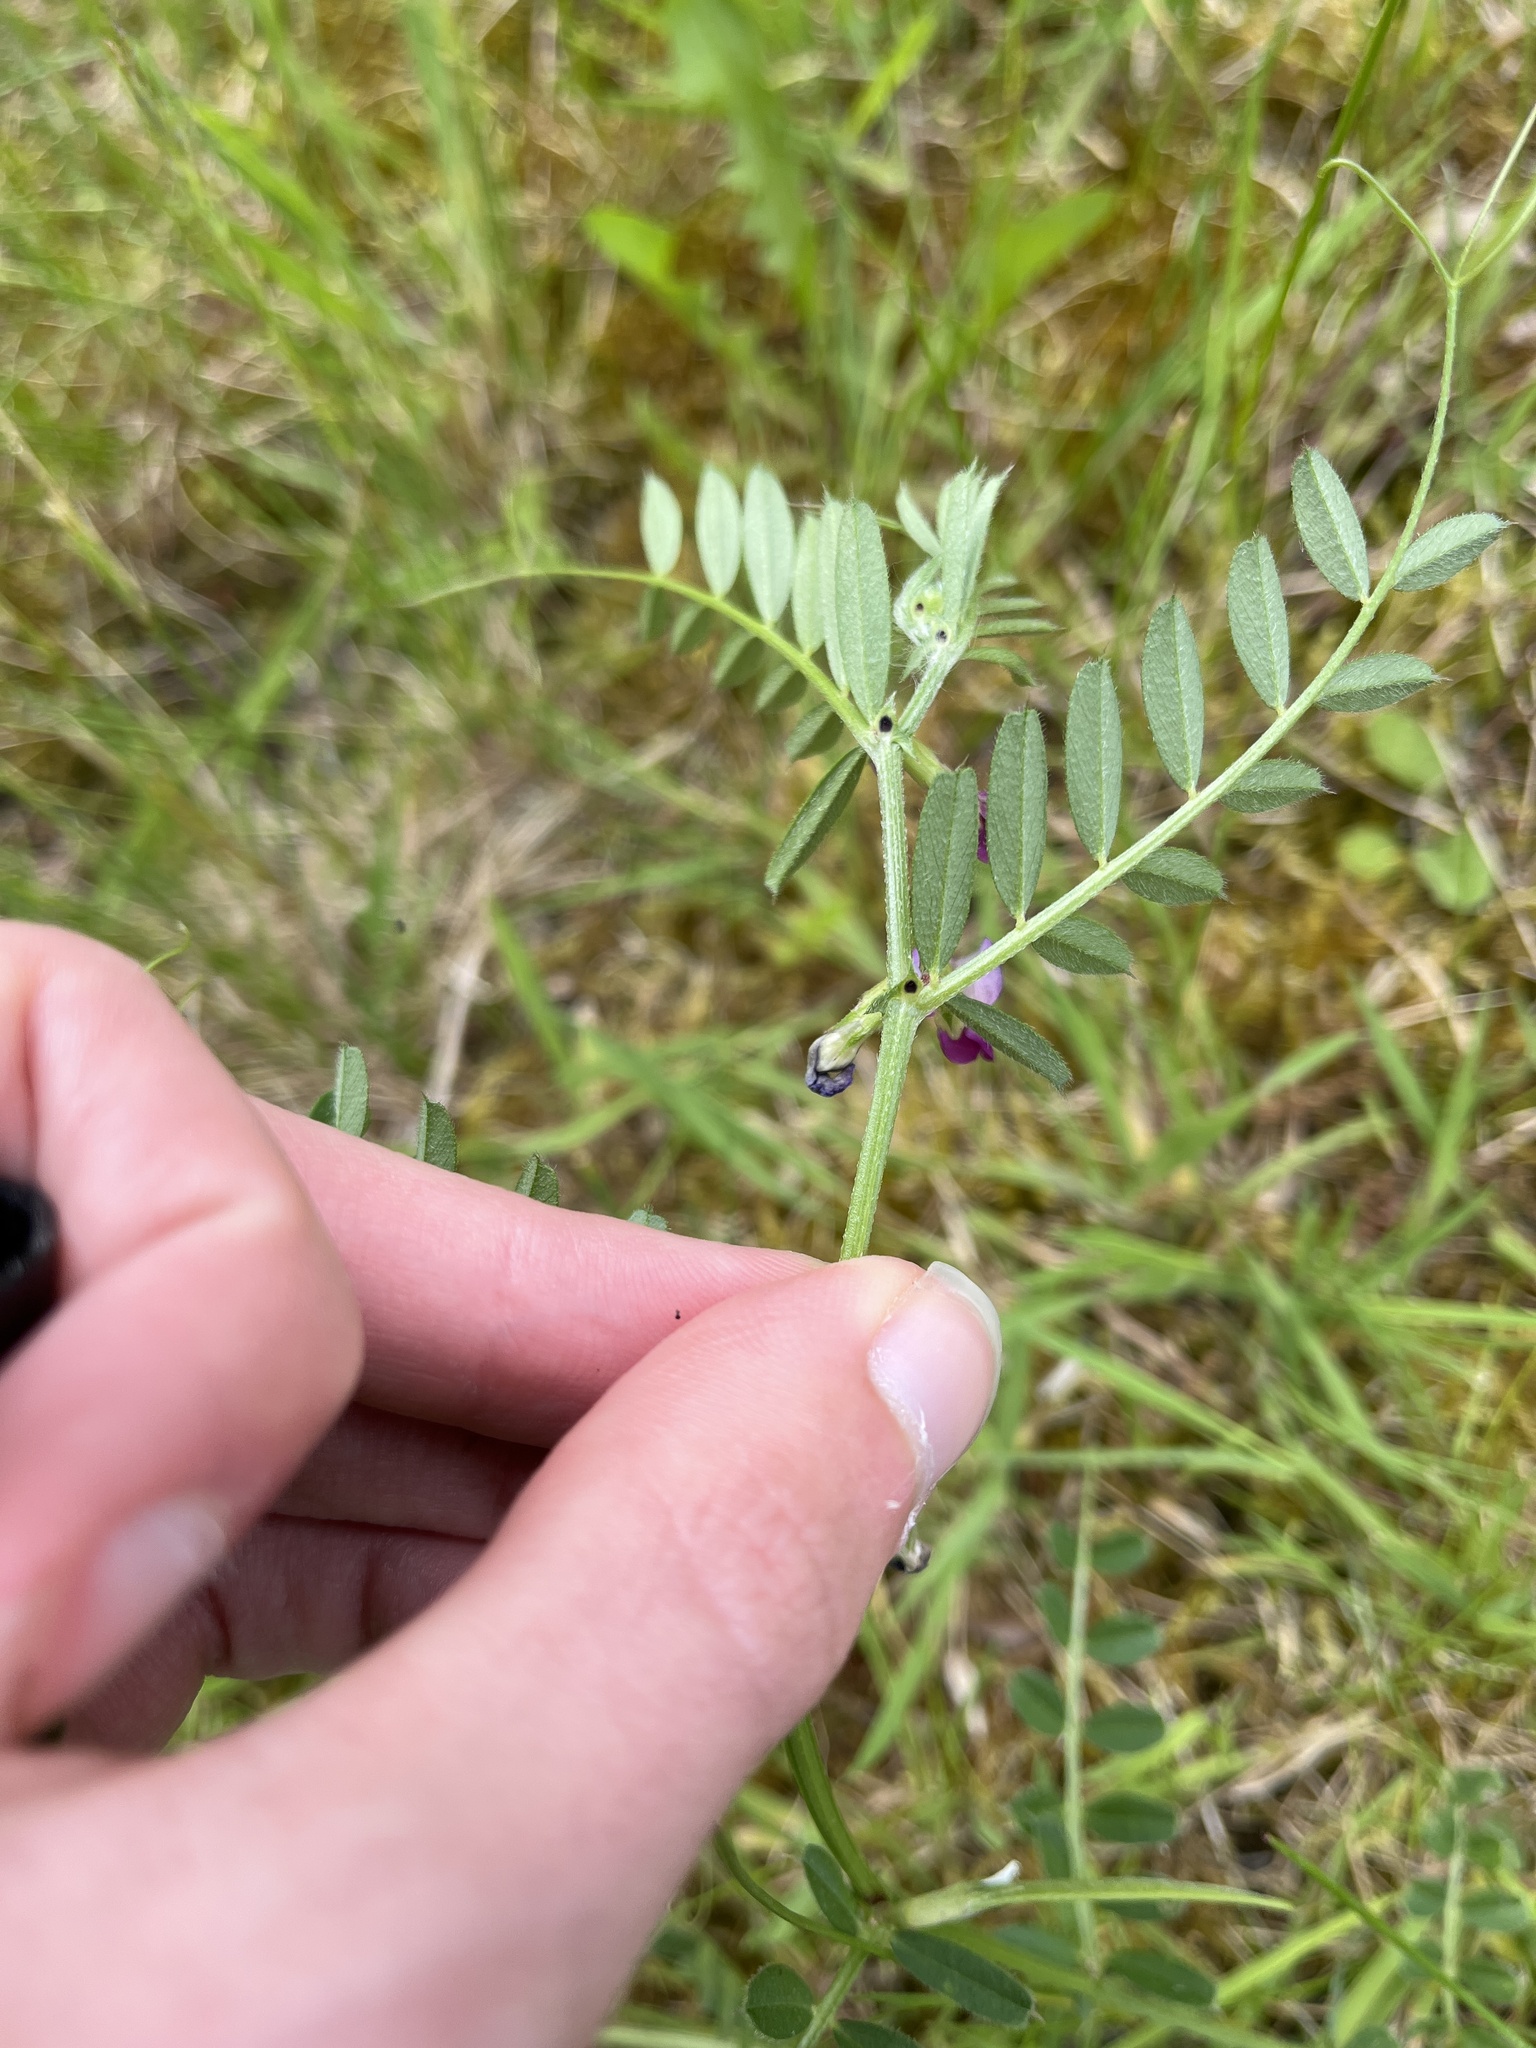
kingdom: Plantae
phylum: Tracheophyta
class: Magnoliopsida
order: Fabales
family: Fabaceae
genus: Vicia
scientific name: Vicia sativa
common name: Garden vetch
